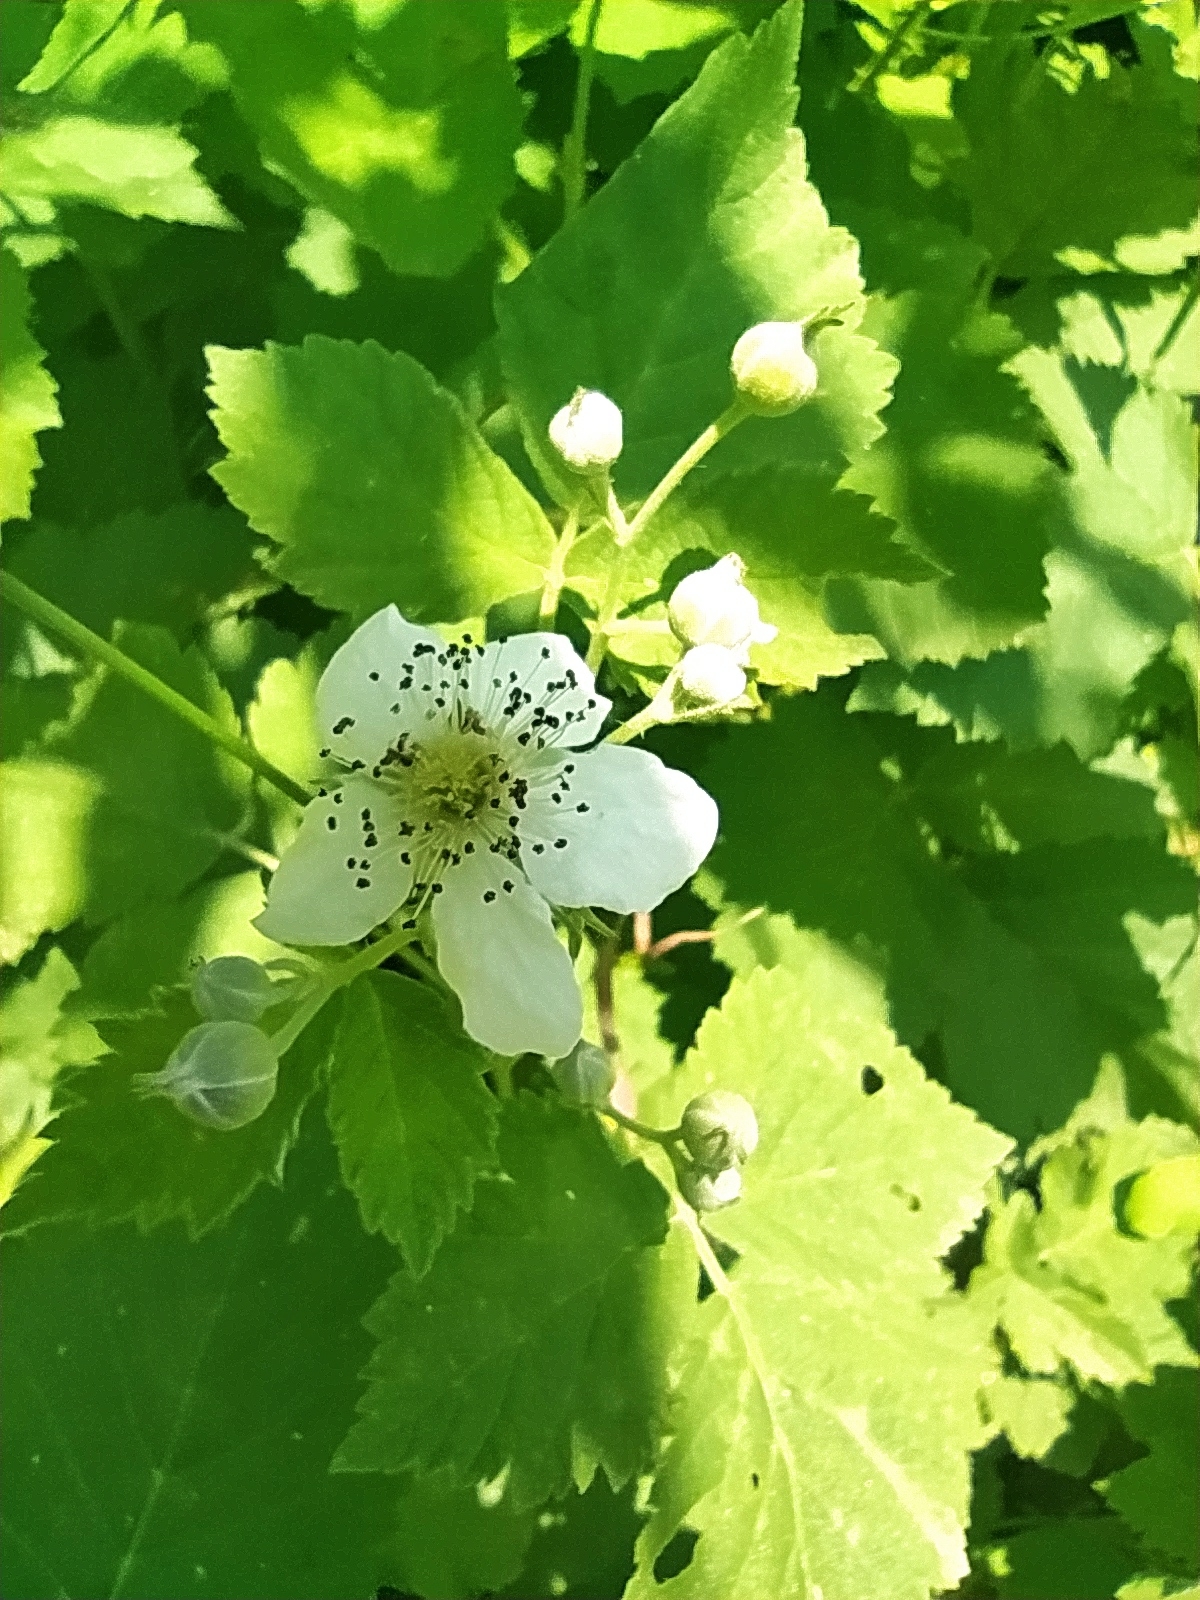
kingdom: Plantae
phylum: Tracheophyta
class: Magnoliopsida
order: Rosales
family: Rosaceae
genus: Rubus
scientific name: Rubus caesius
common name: Dewberry
